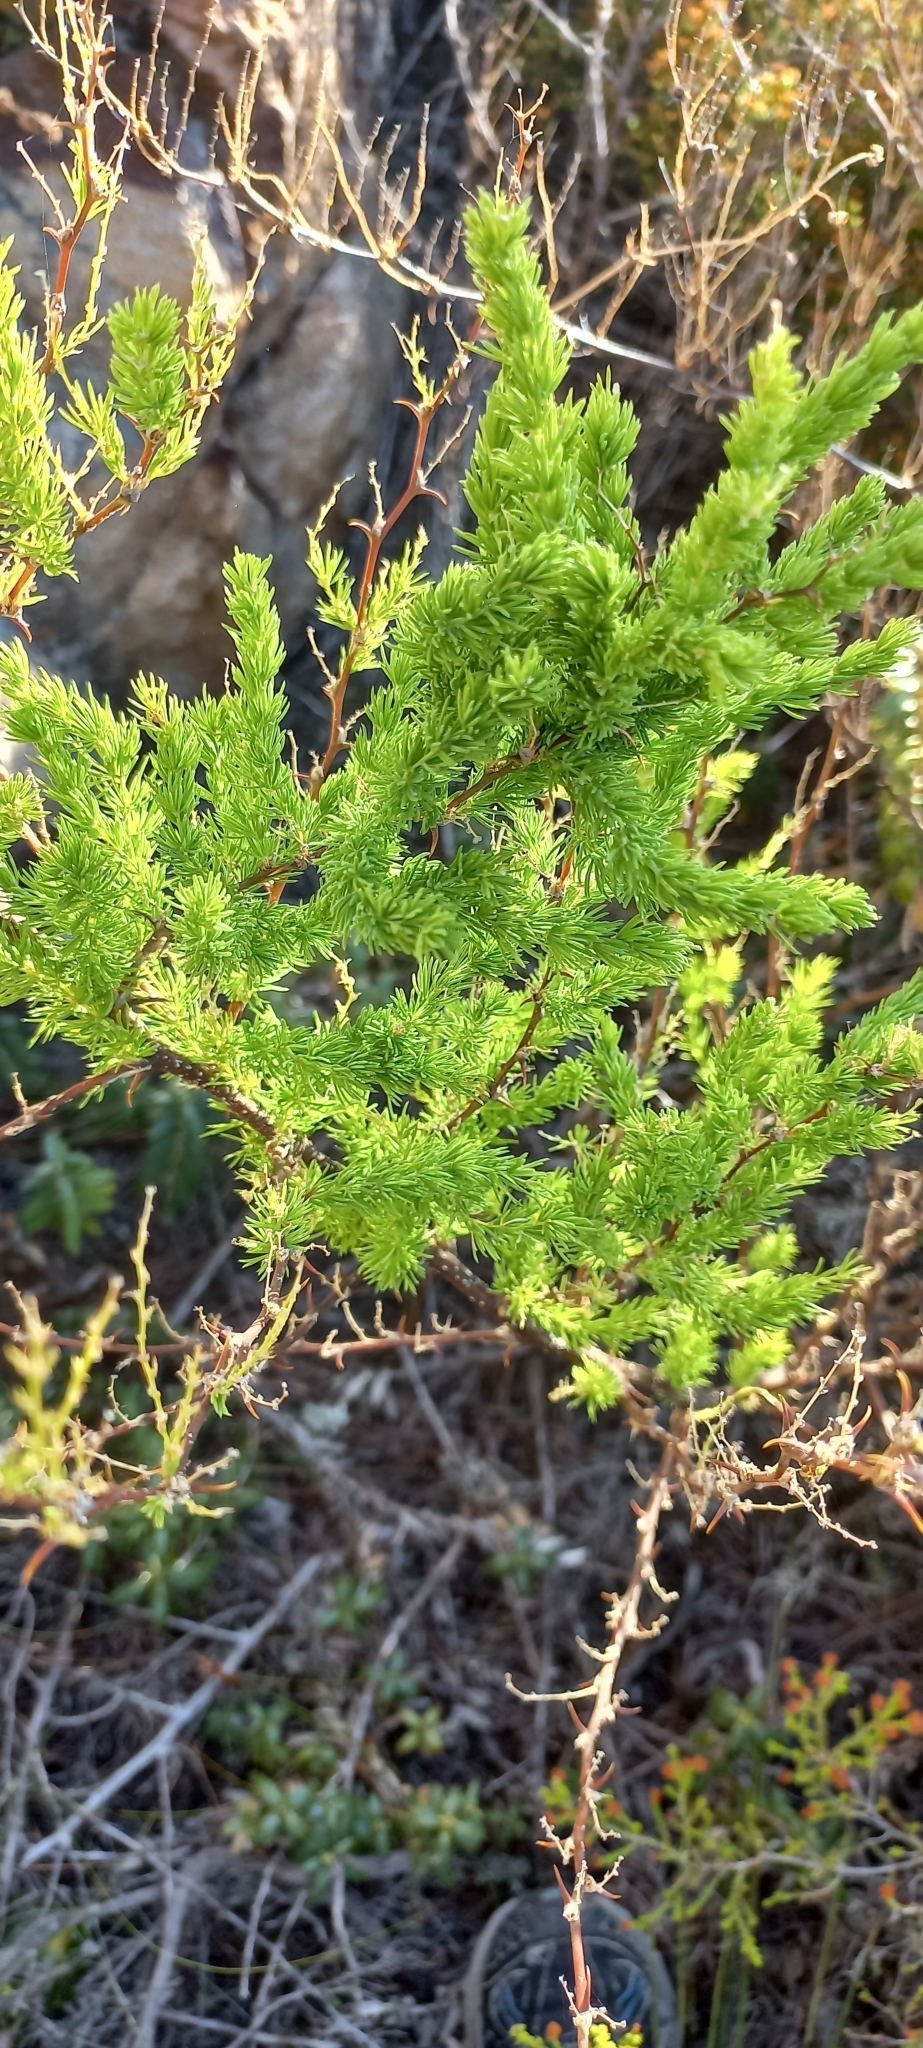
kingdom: Plantae
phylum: Tracheophyta
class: Liliopsida
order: Asparagales
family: Asparagaceae
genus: Asparagus
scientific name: Asparagus rubicundus
